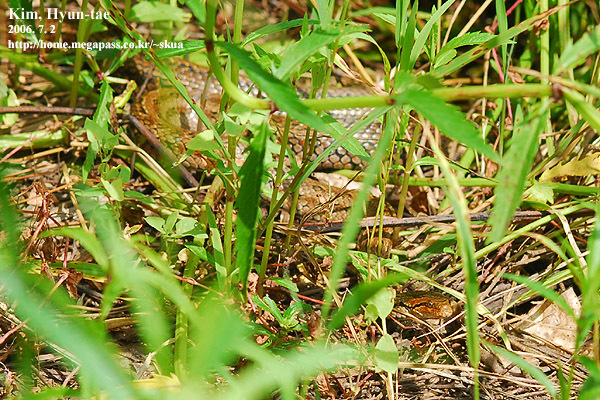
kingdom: Animalia
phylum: Chordata
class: Squamata
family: Colubridae
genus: Oocatochus
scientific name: Oocatochus rufodorsatus
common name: Frog-eating rat snake
